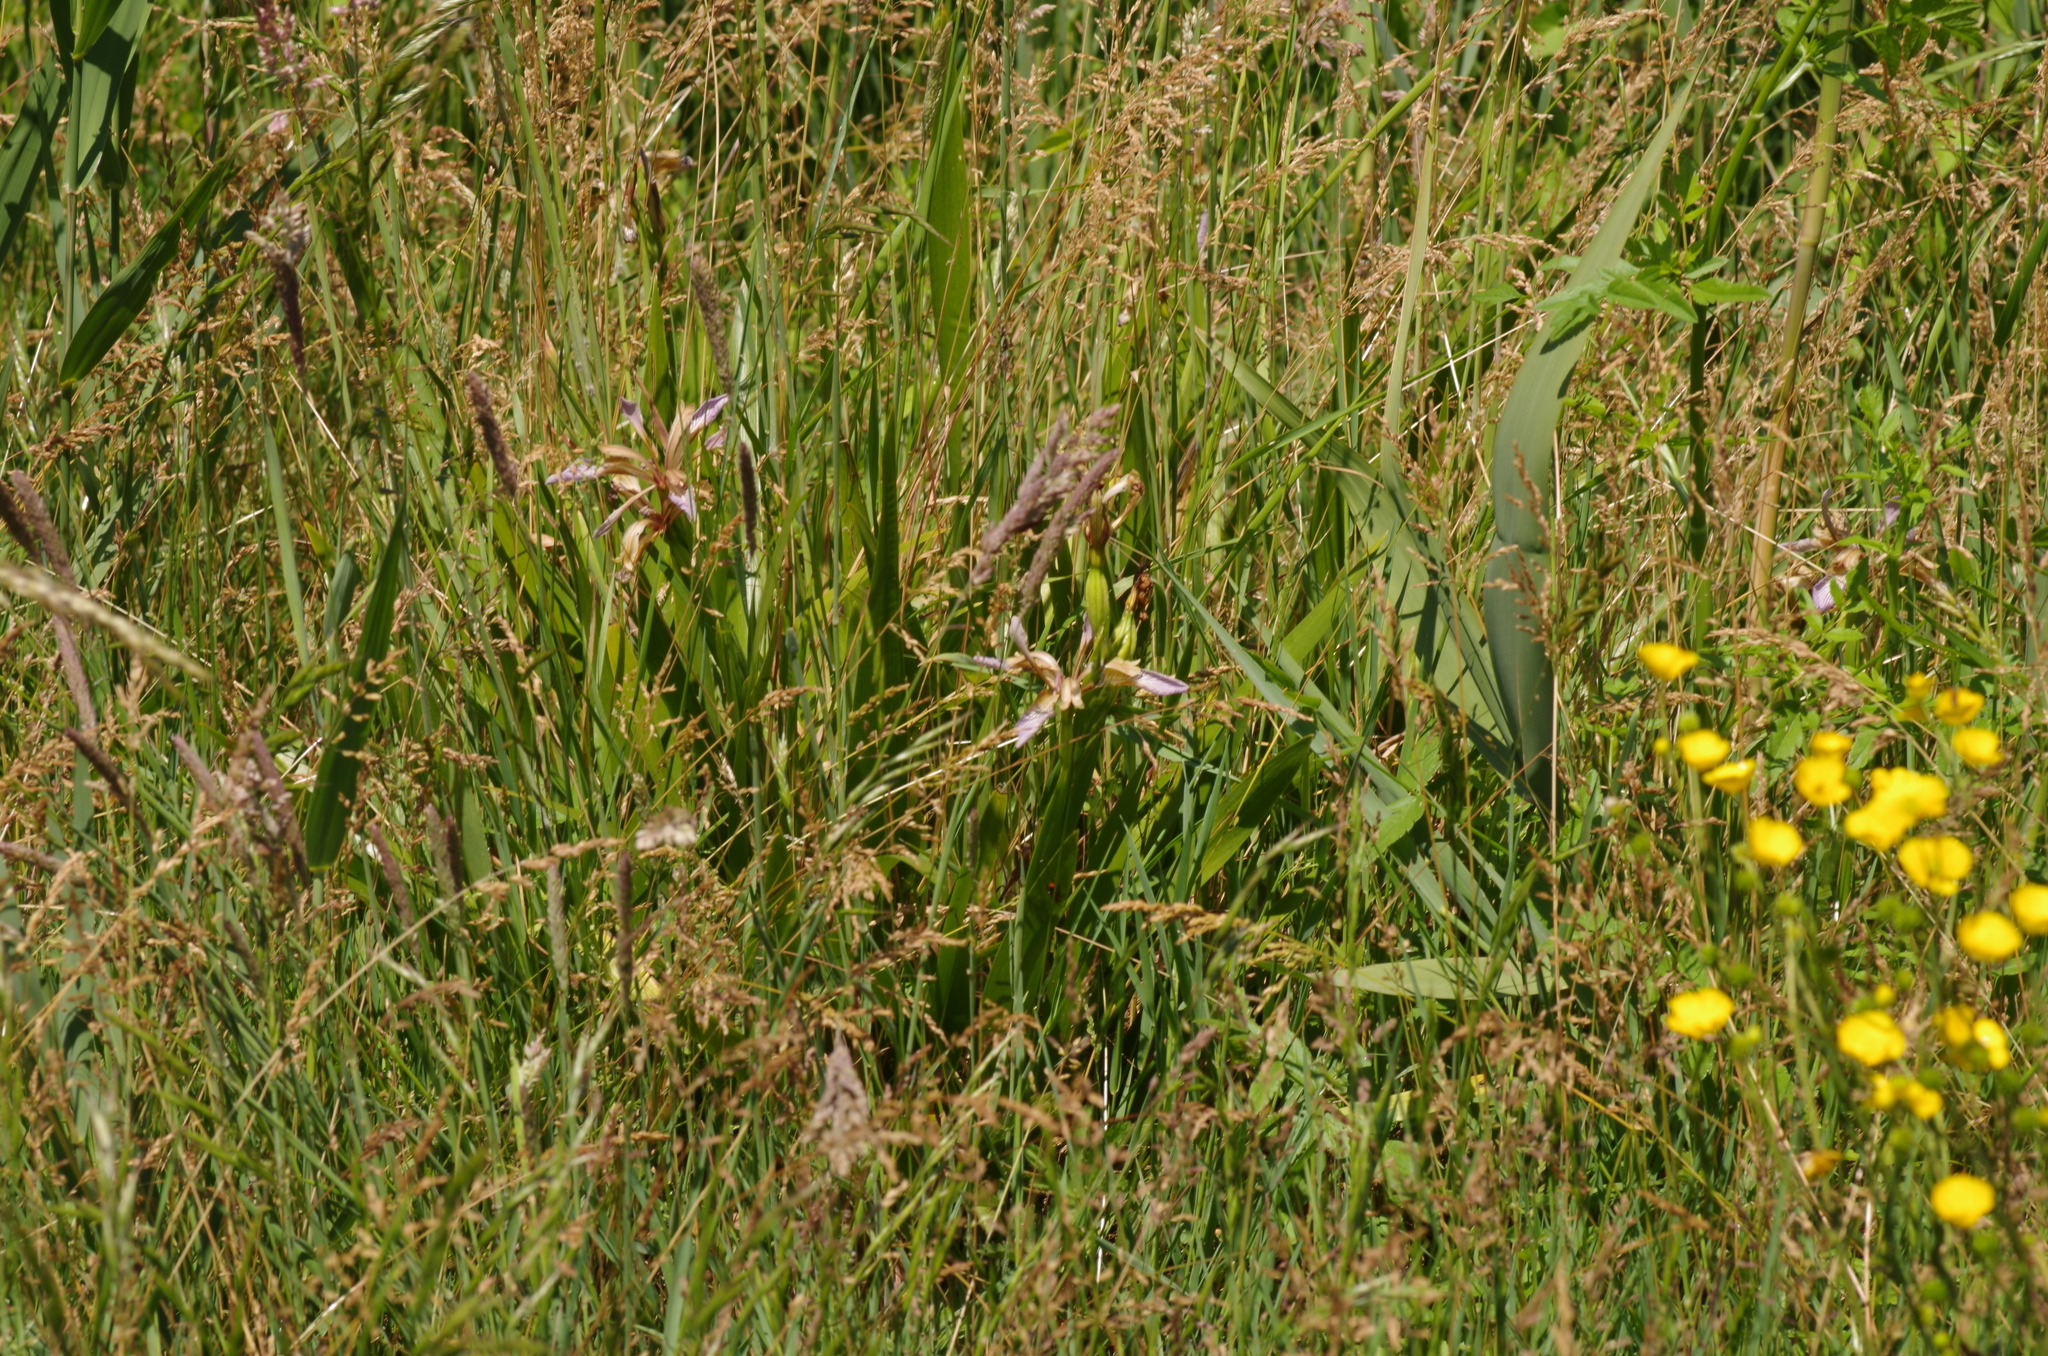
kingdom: Plantae
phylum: Tracheophyta
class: Liliopsida
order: Asparagales
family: Iridaceae
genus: Iris
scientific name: Iris foetidissima
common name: Stinking iris
